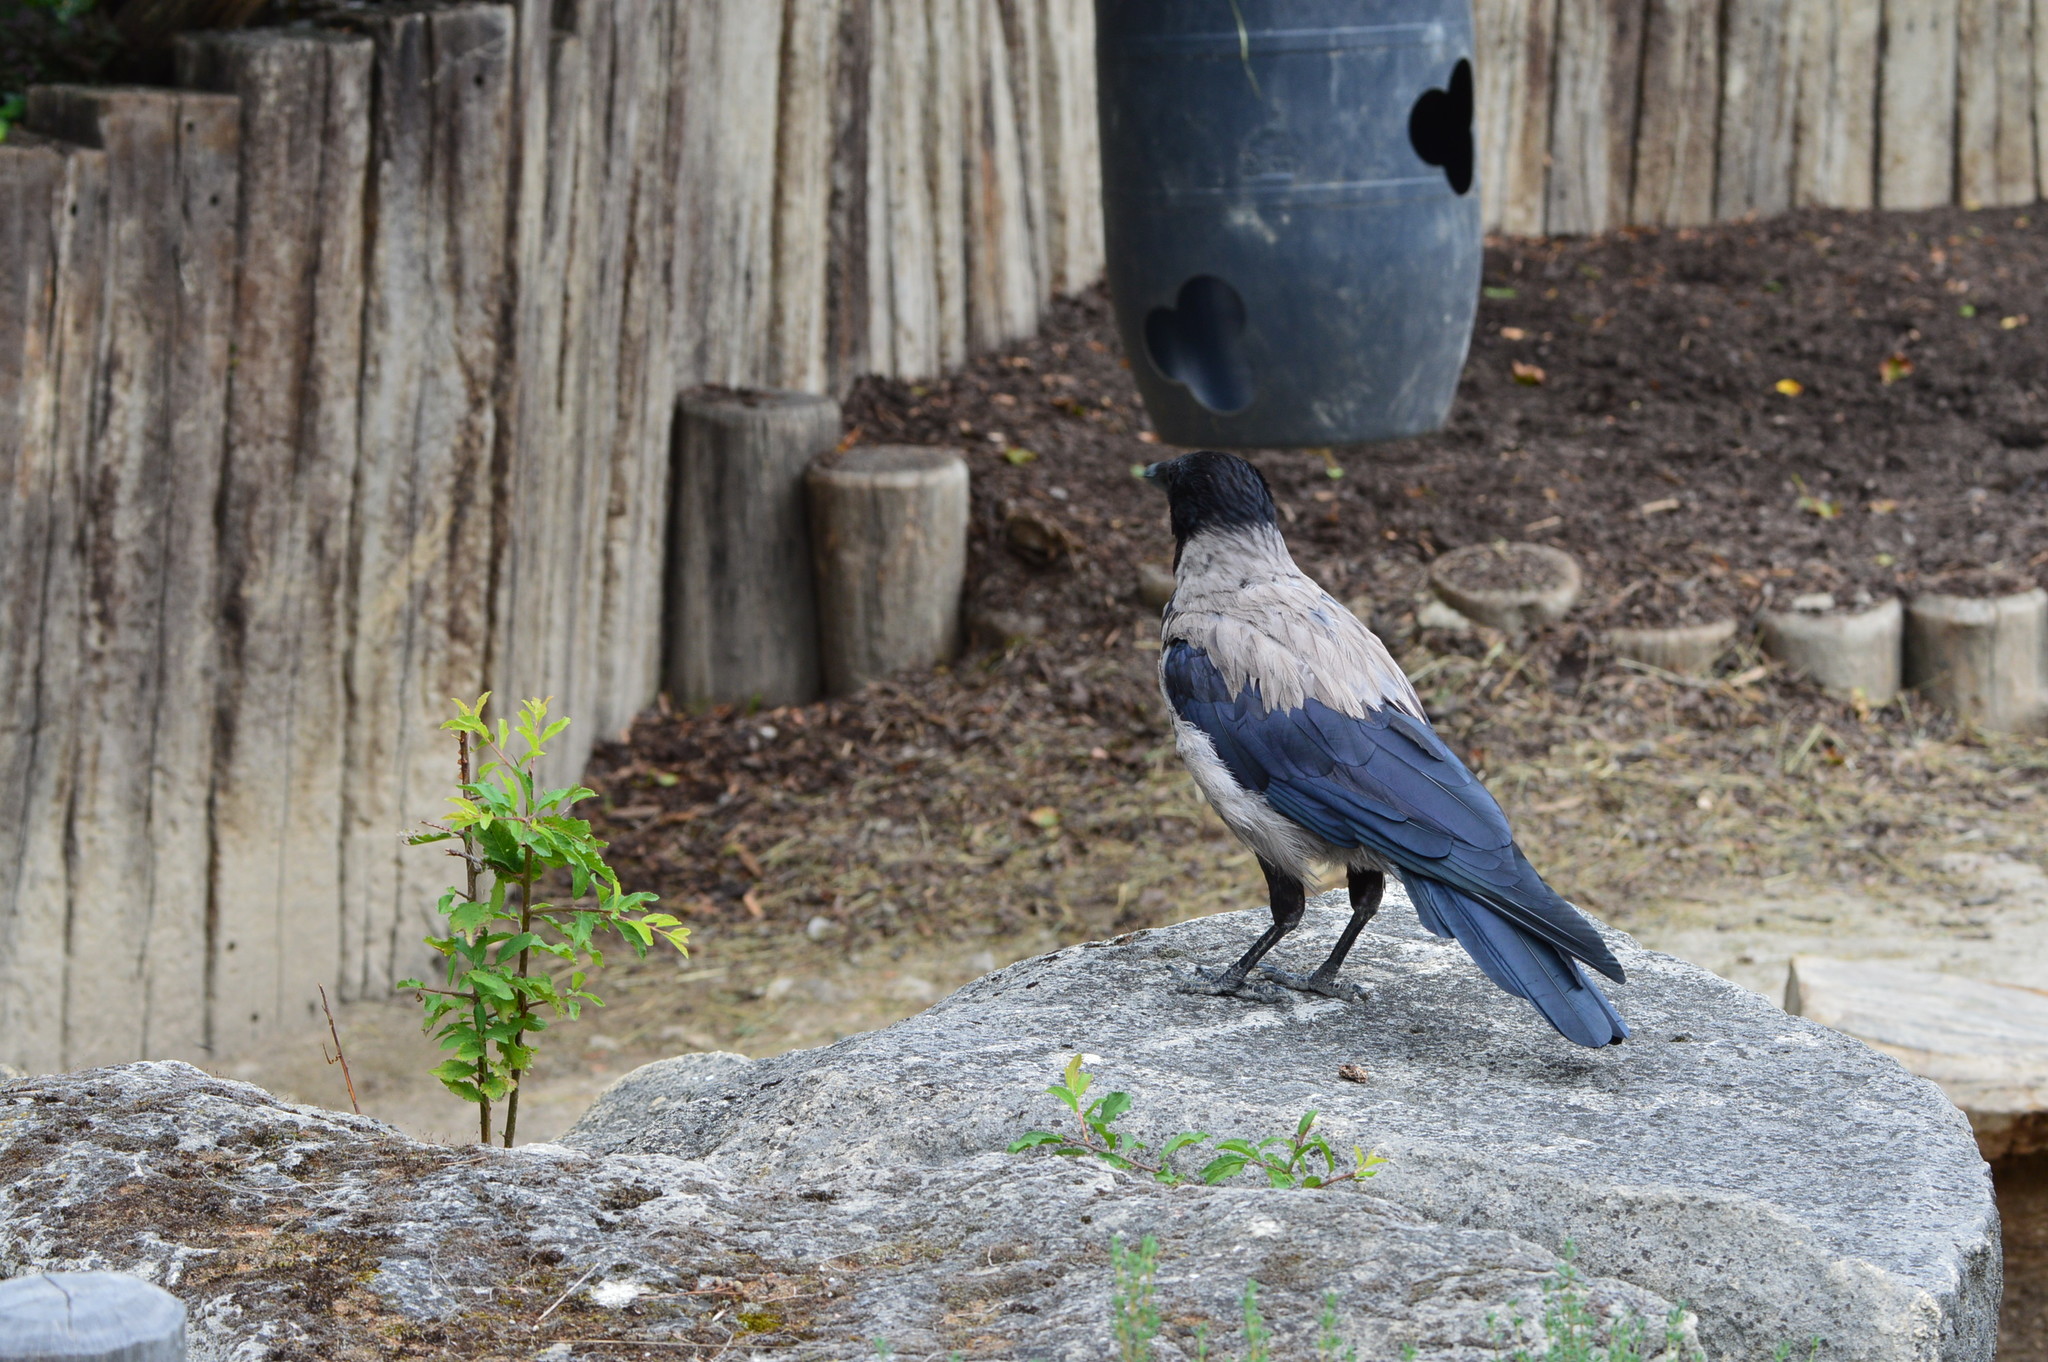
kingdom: Animalia
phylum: Chordata
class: Aves
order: Passeriformes
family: Corvidae
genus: Corvus
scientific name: Corvus cornix
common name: Hooded crow
